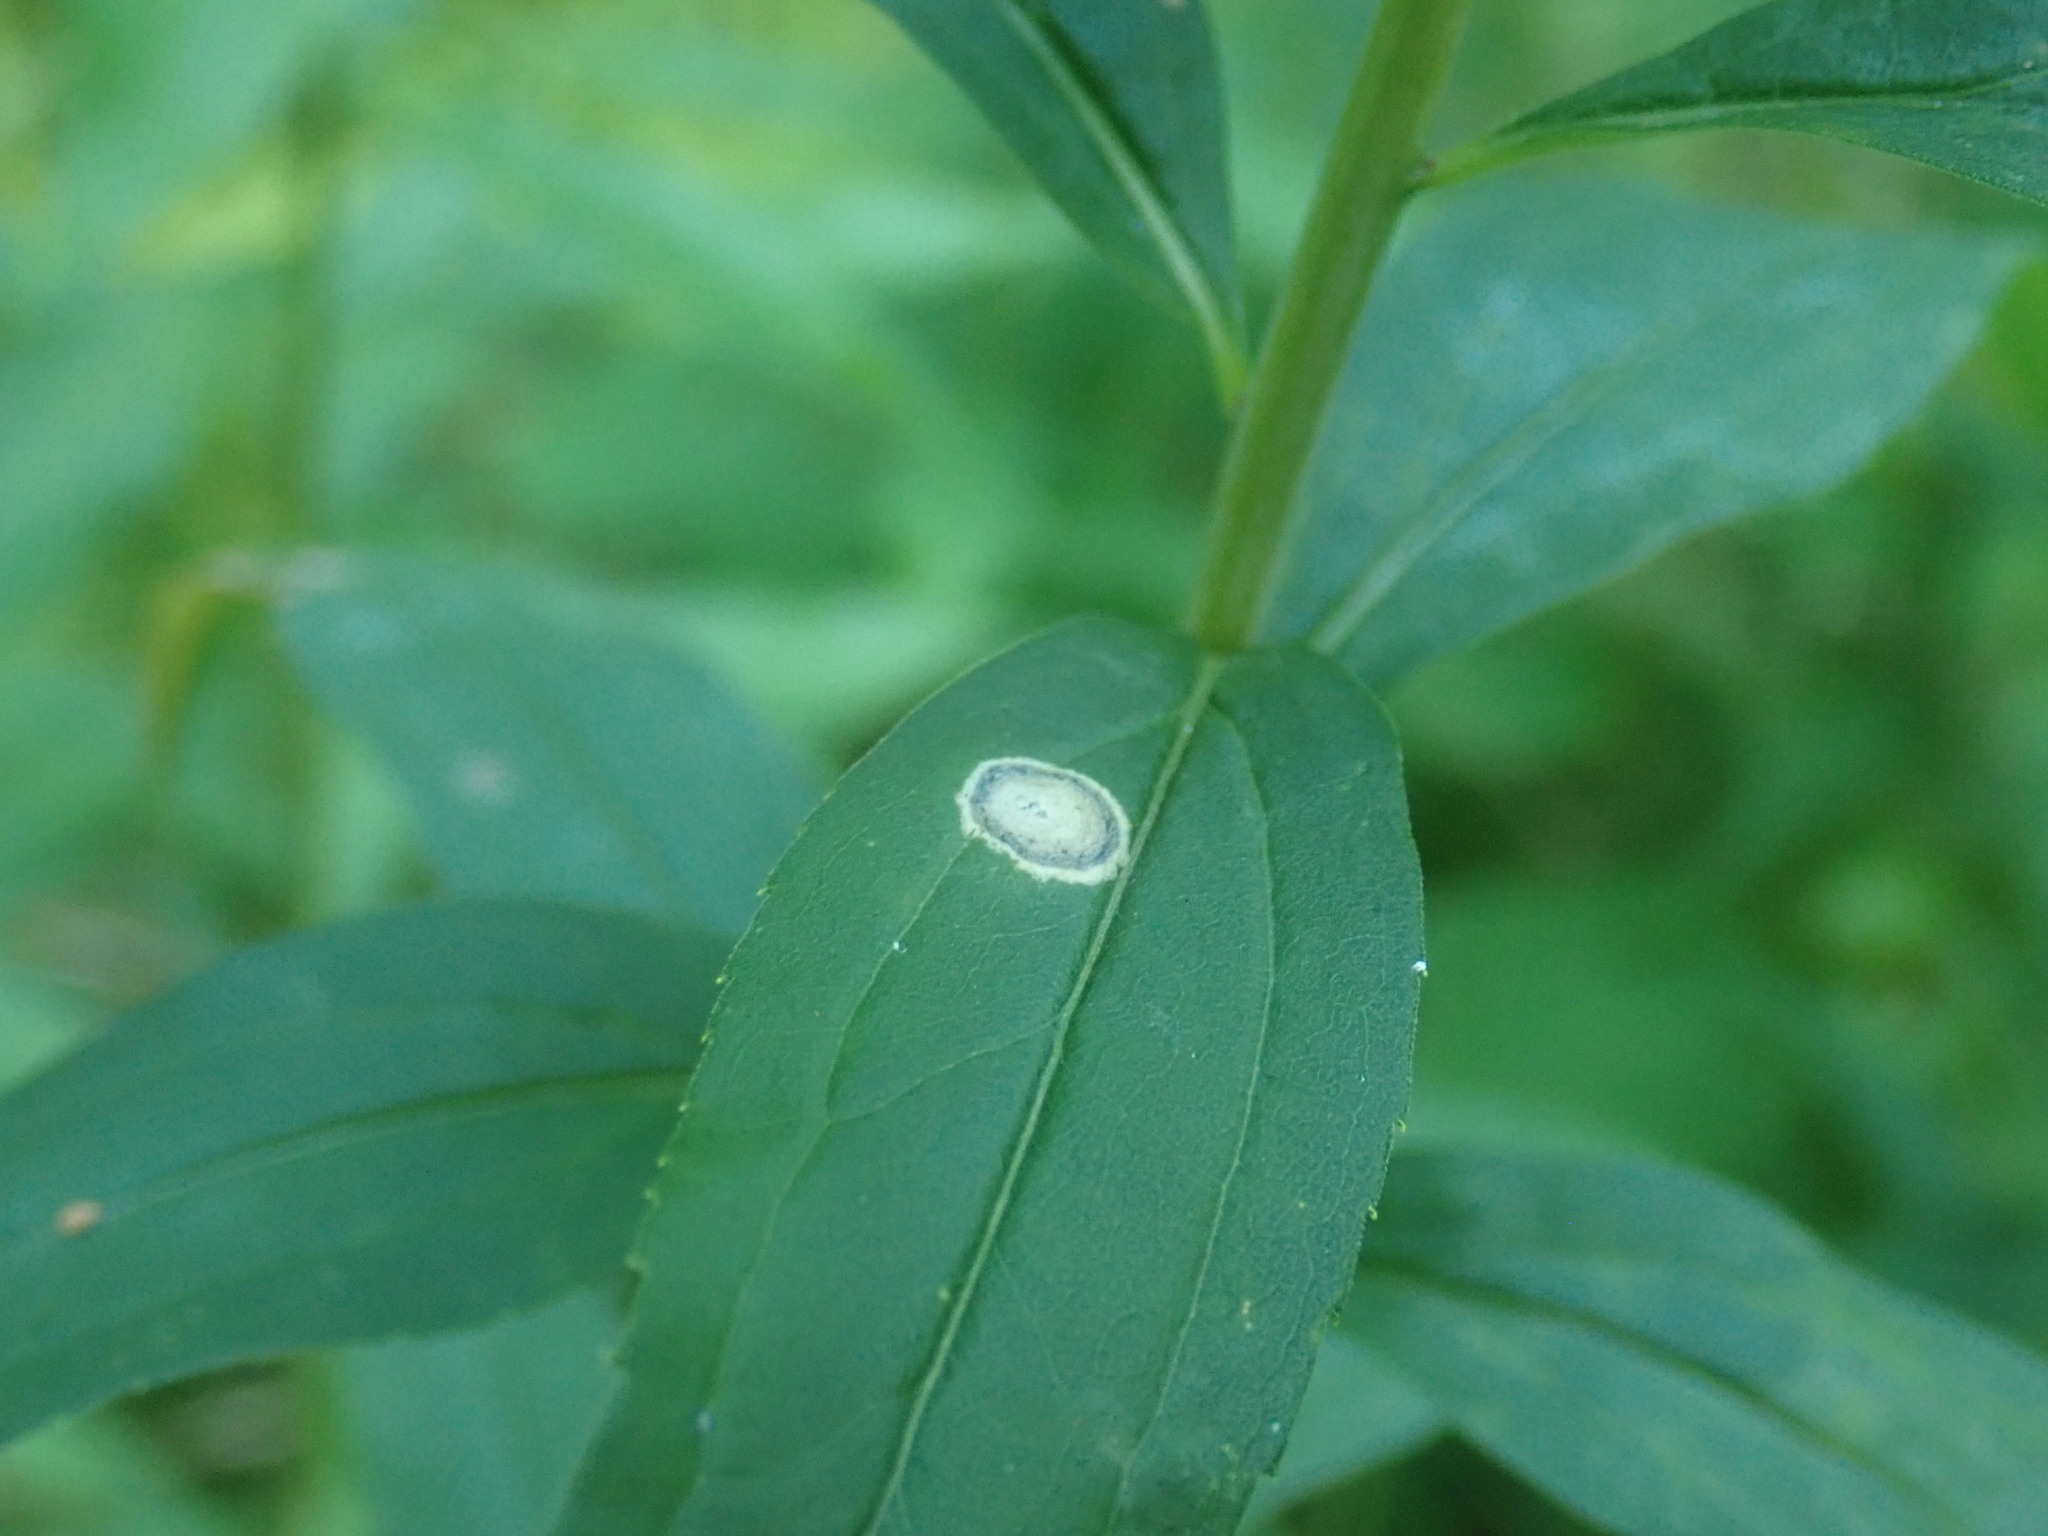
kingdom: Animalia
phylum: Arthropoda
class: Insecta
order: Diptera
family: Cecidomyiidae
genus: Asteromyia
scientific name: Asteromyia carbonifera
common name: Carbonifera goldenrod gall midge
